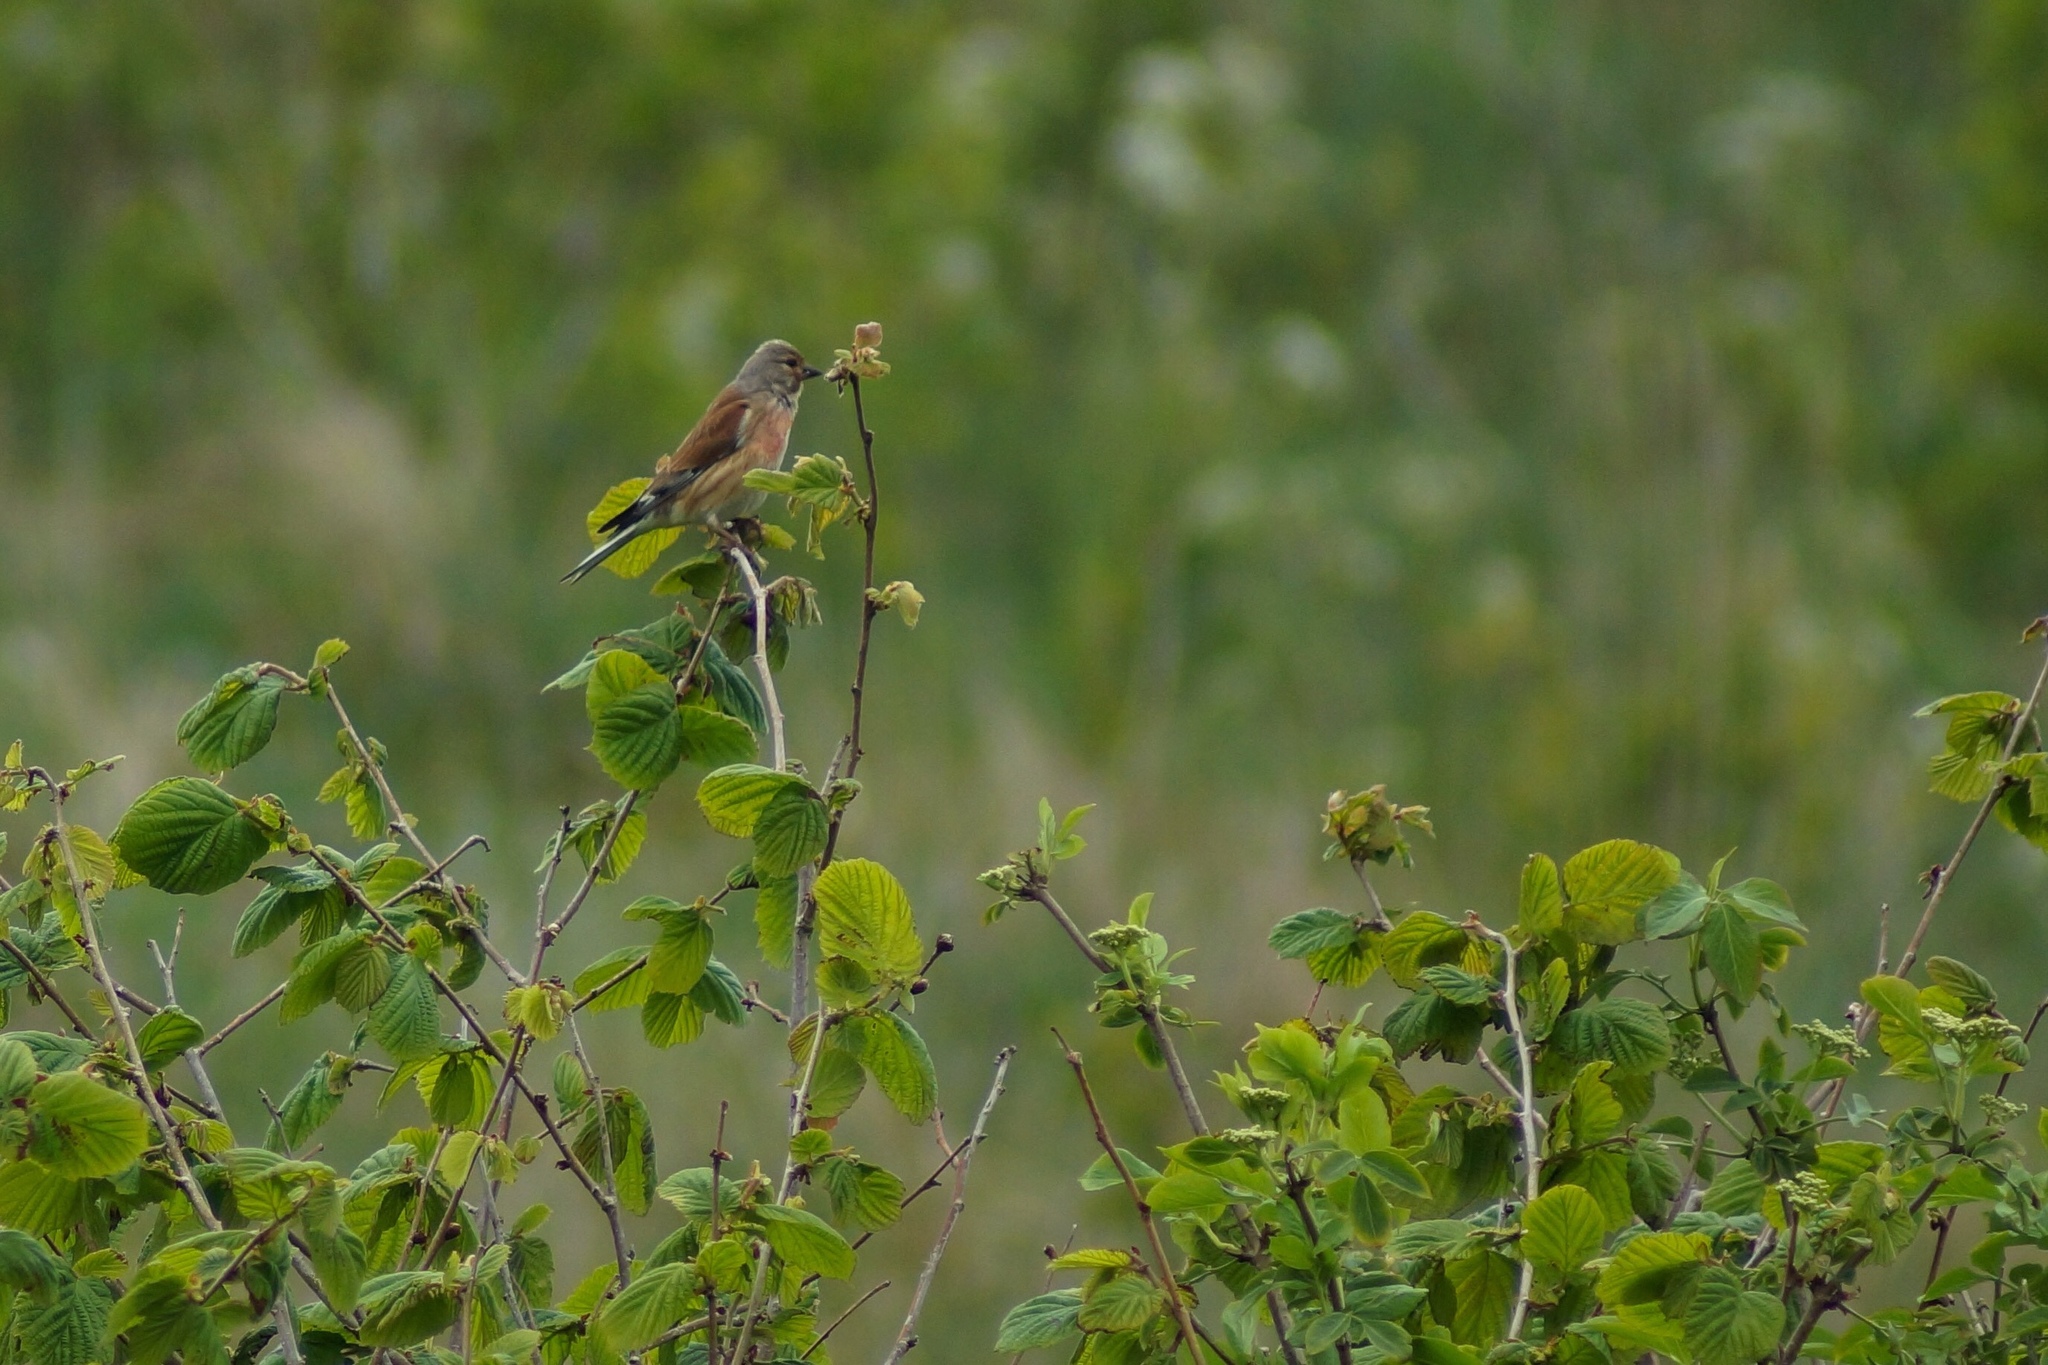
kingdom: Animalia
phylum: Chordata
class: Aves
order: Passeriformes
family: Fringillidae
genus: Linaria
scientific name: Linaria cannabina
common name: Common linnet
